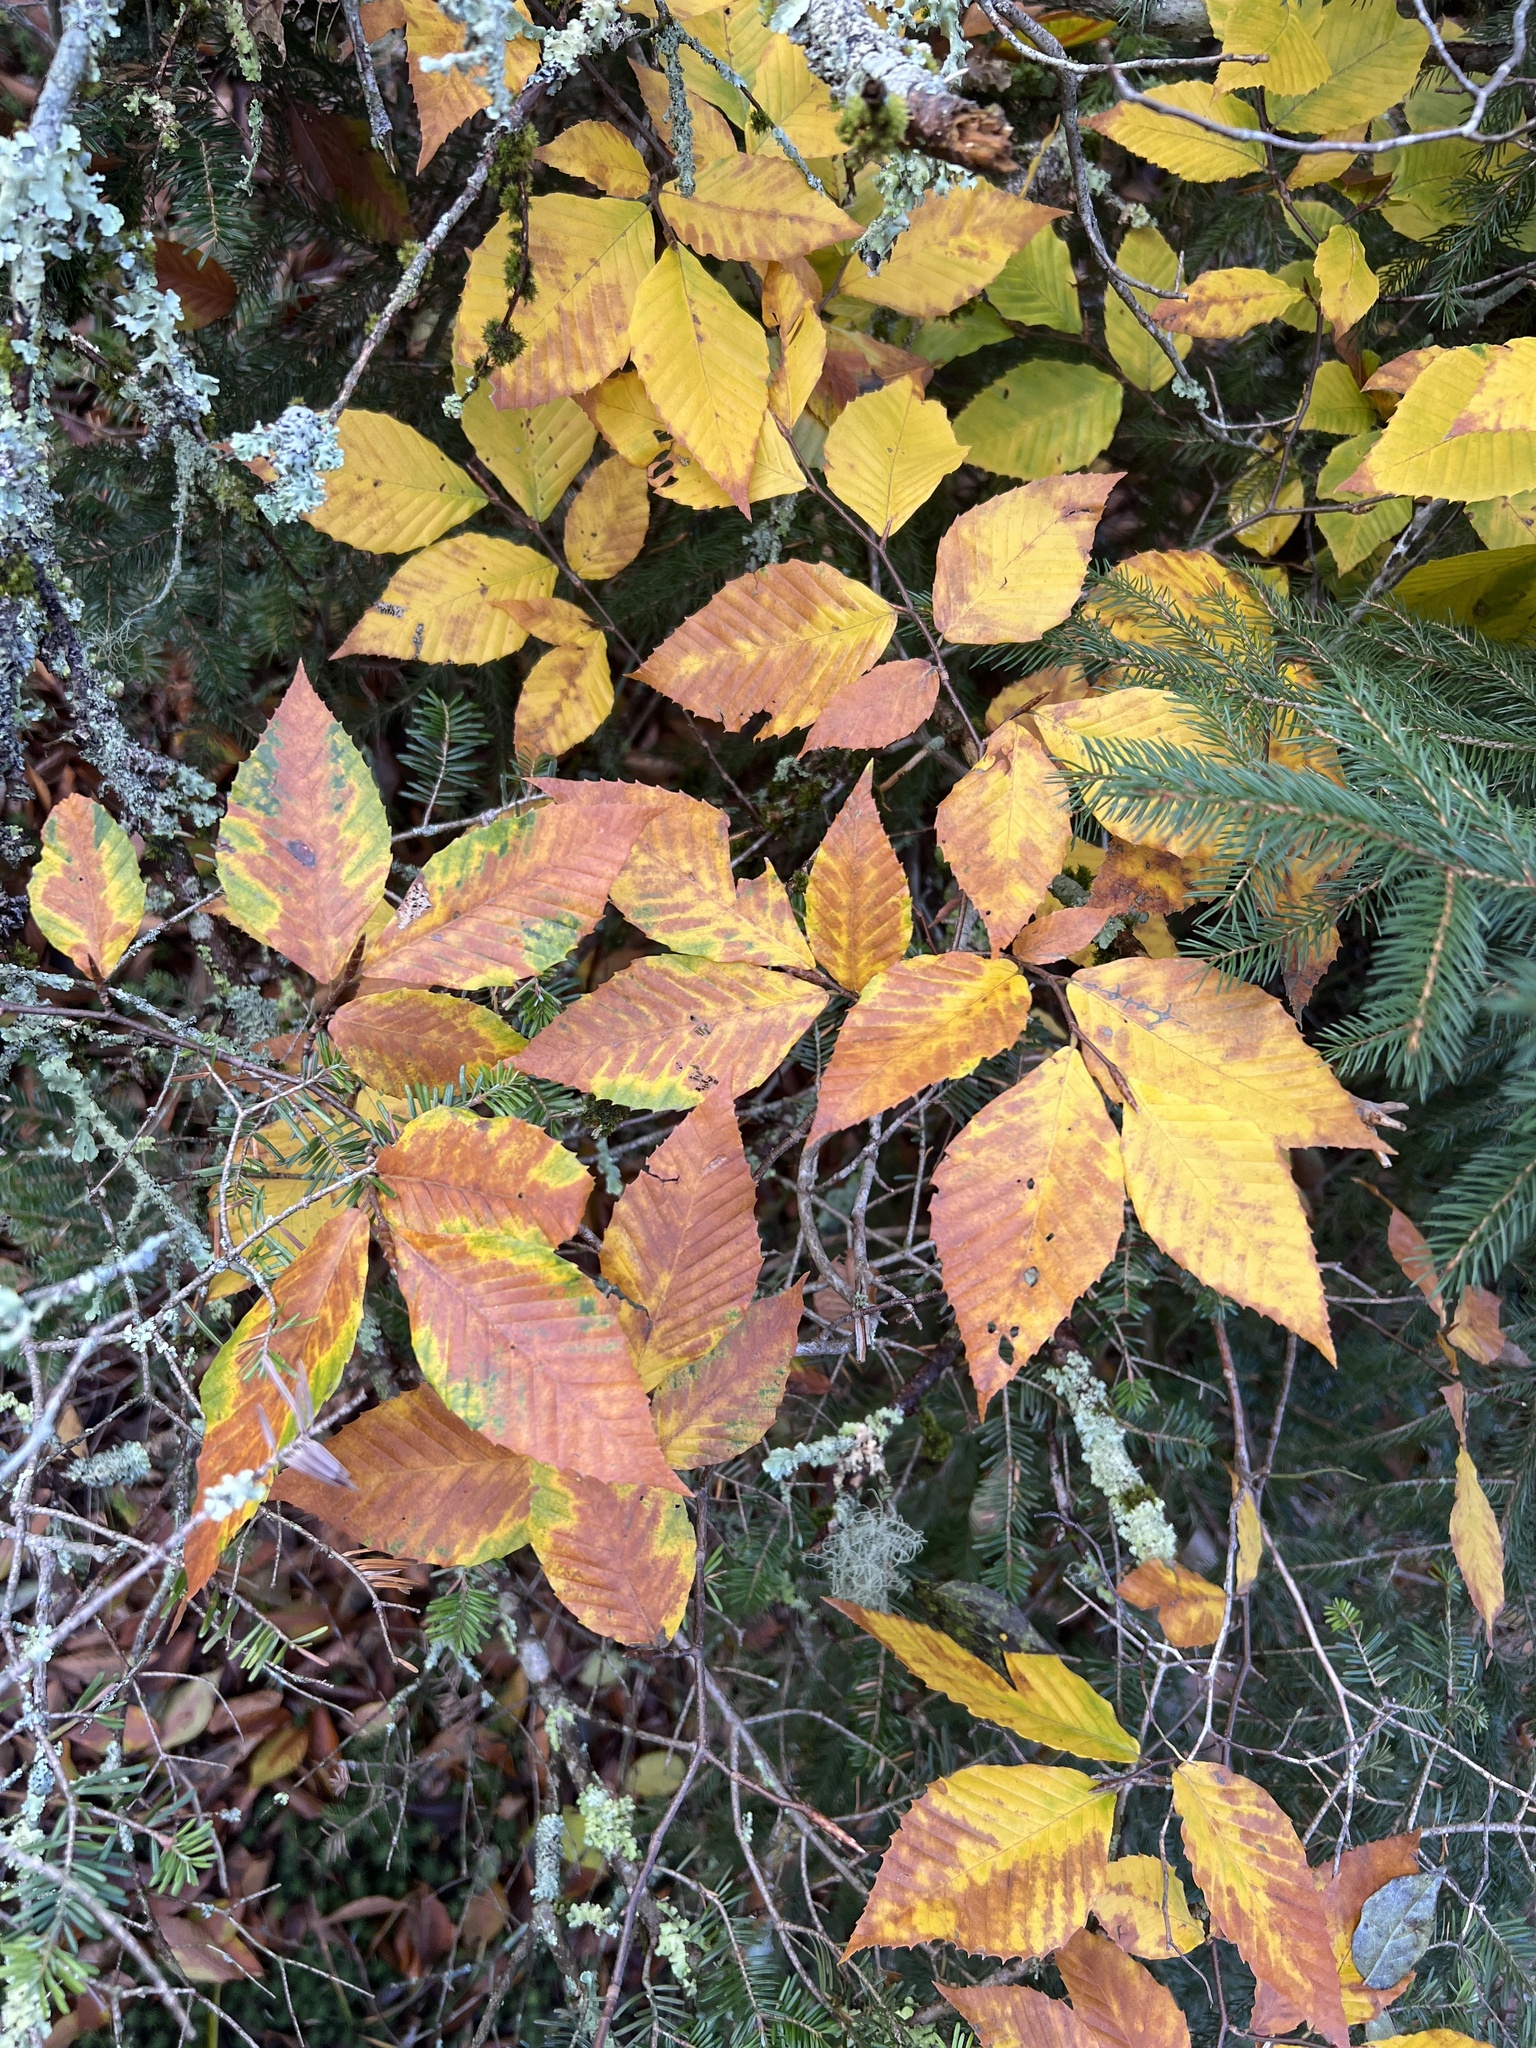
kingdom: Plantae
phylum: Tracheophyta
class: Magnoliopsida
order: Fagales
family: Fagaceae
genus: Fagus
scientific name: Fagus grandifolia
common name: American beech
